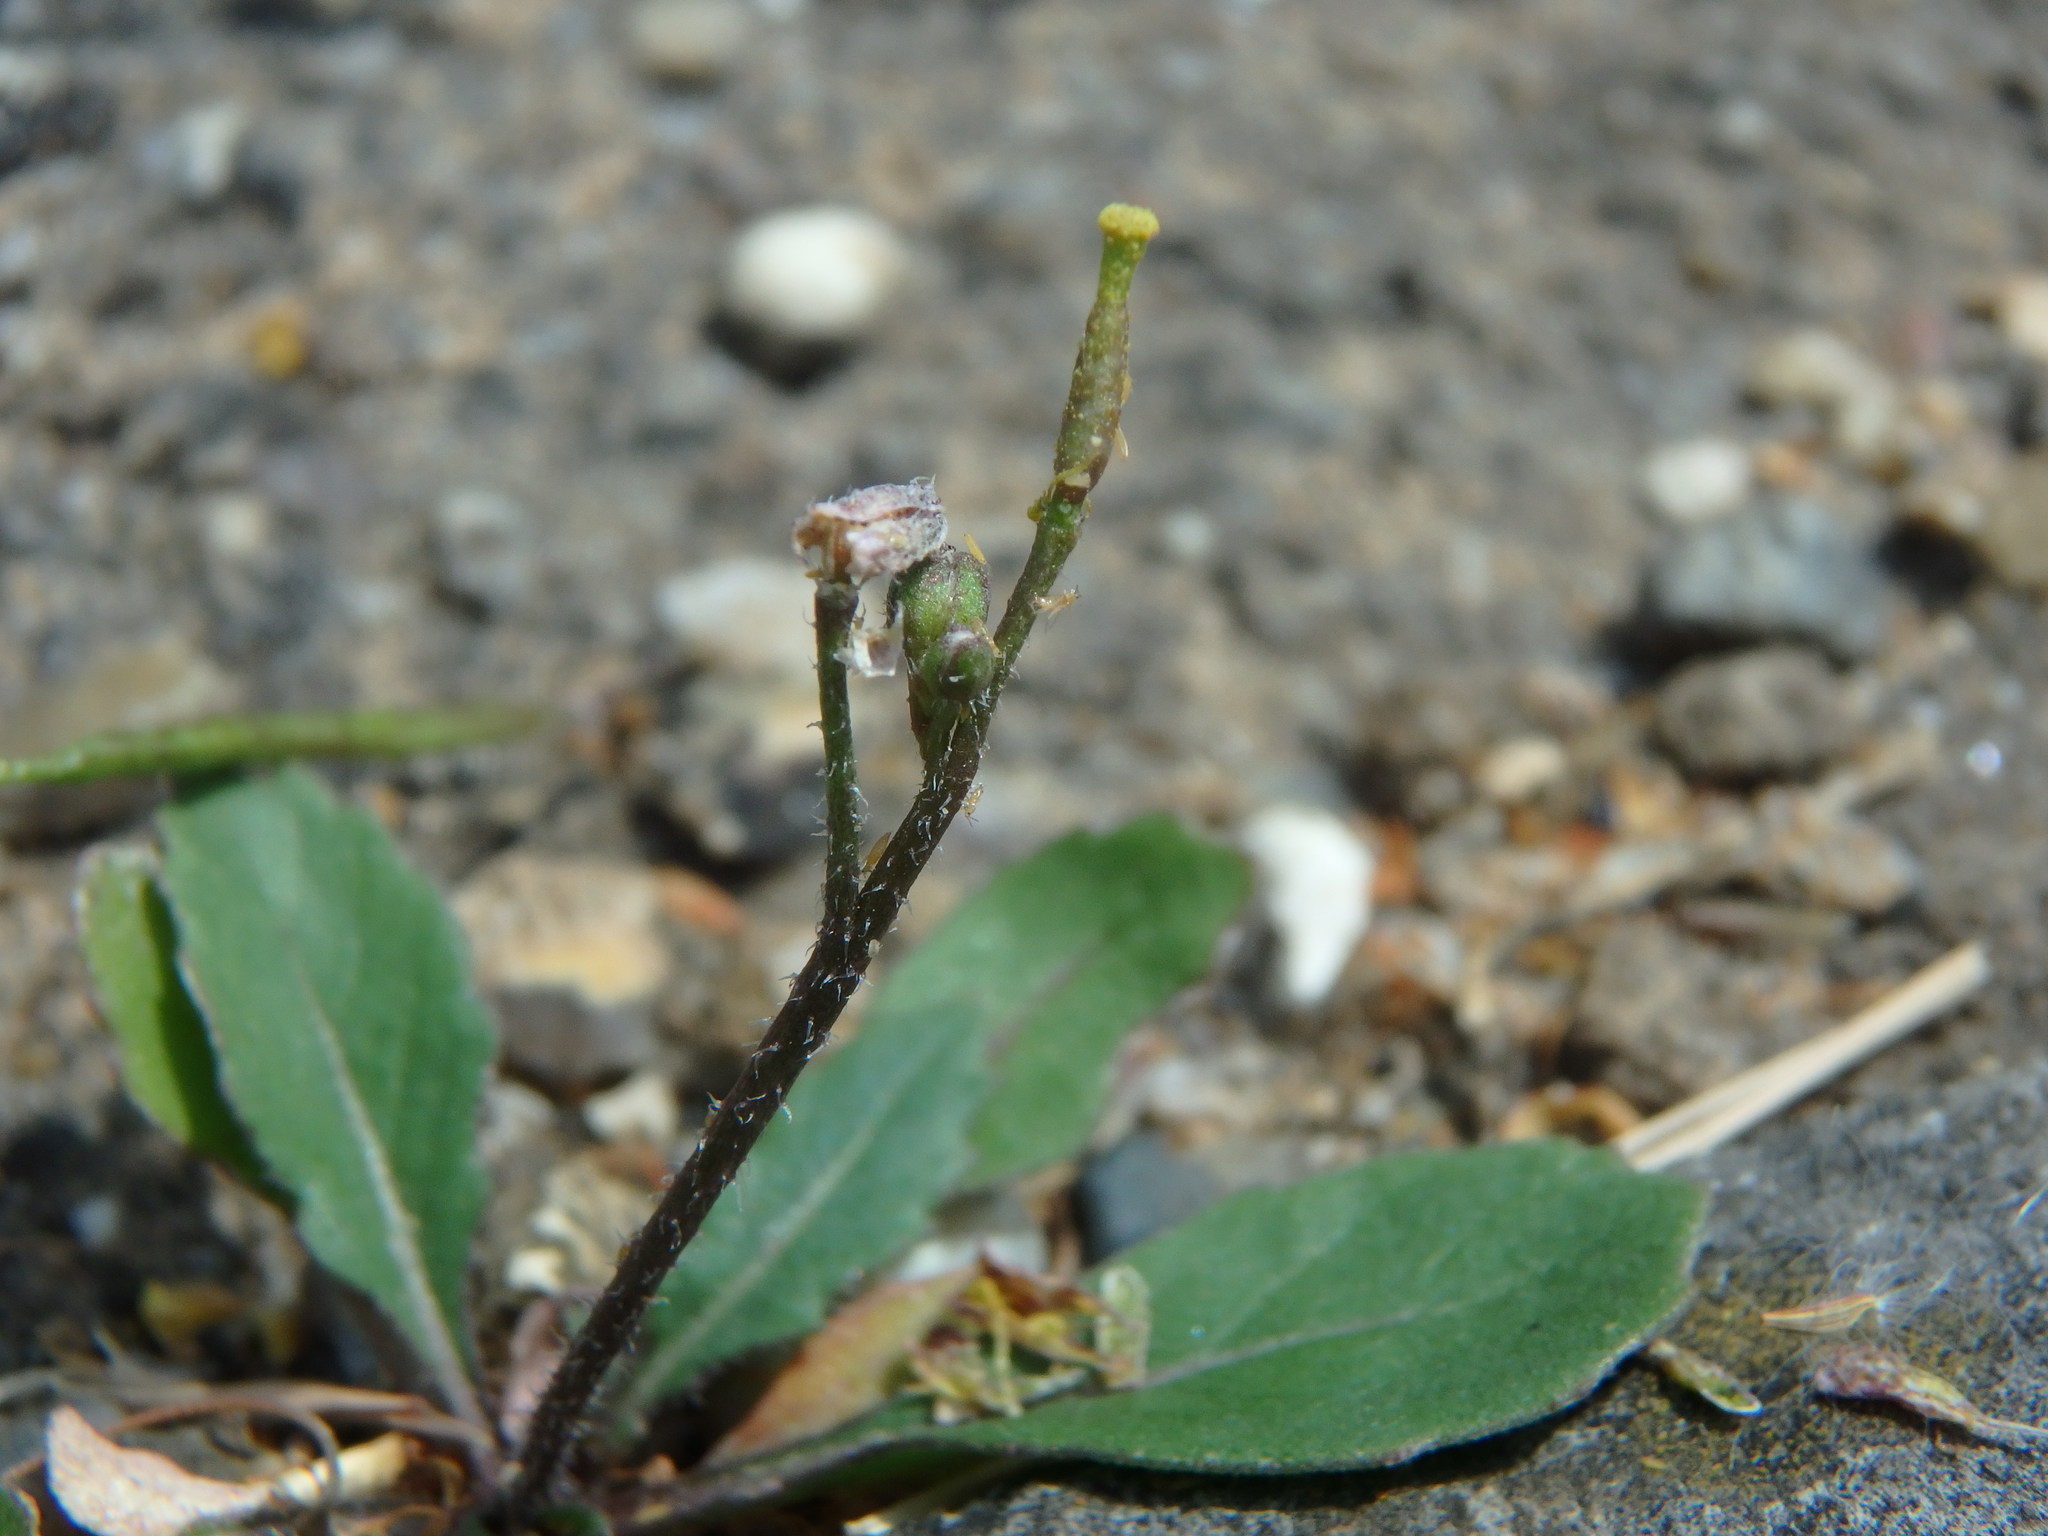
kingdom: Plantae
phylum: Tracheophyta
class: Magnoliopsida
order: Brassicales
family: Brassicaceae
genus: Diplotaxis
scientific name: Diplotaxis muralis
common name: Annual wall-rocket
